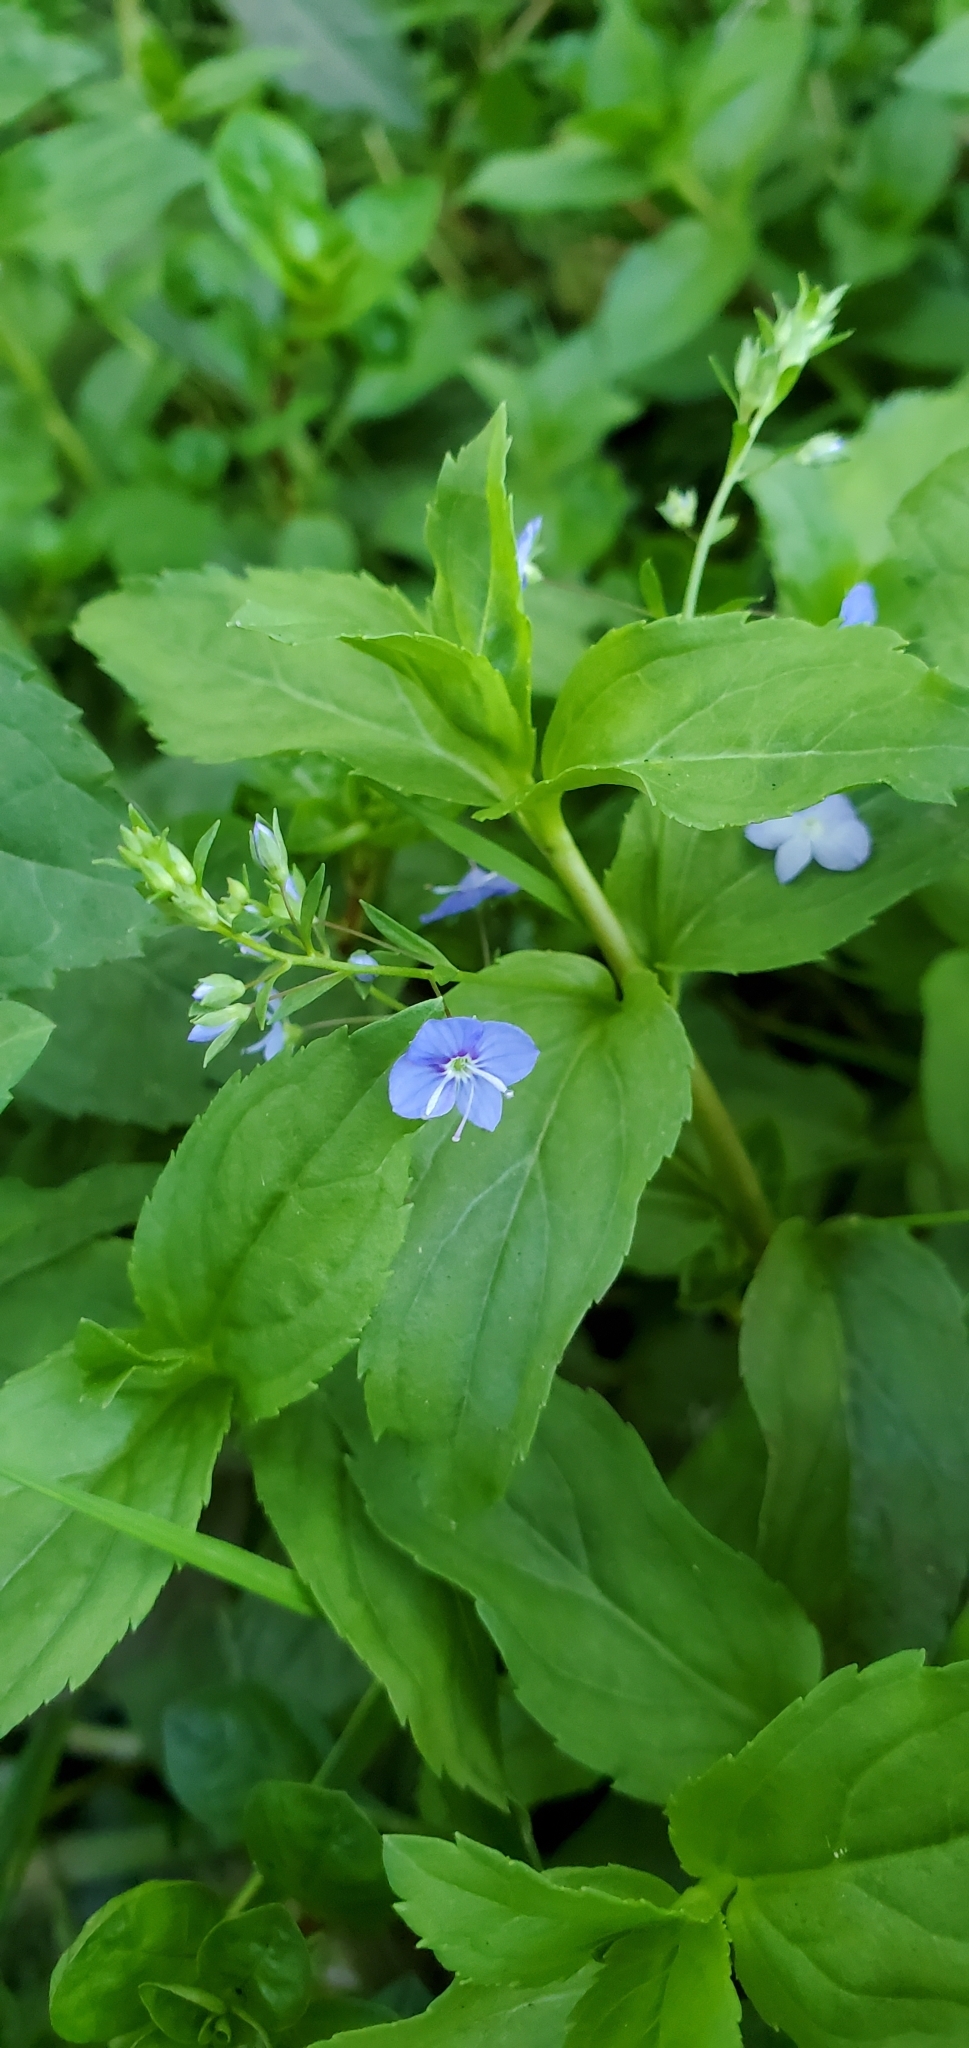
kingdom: Plantae
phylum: Tracheophyta
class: Magnoliopsida
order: Lamiales
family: Plantaginaceae
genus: Veronica
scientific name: Veronica americana
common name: American brooklime
